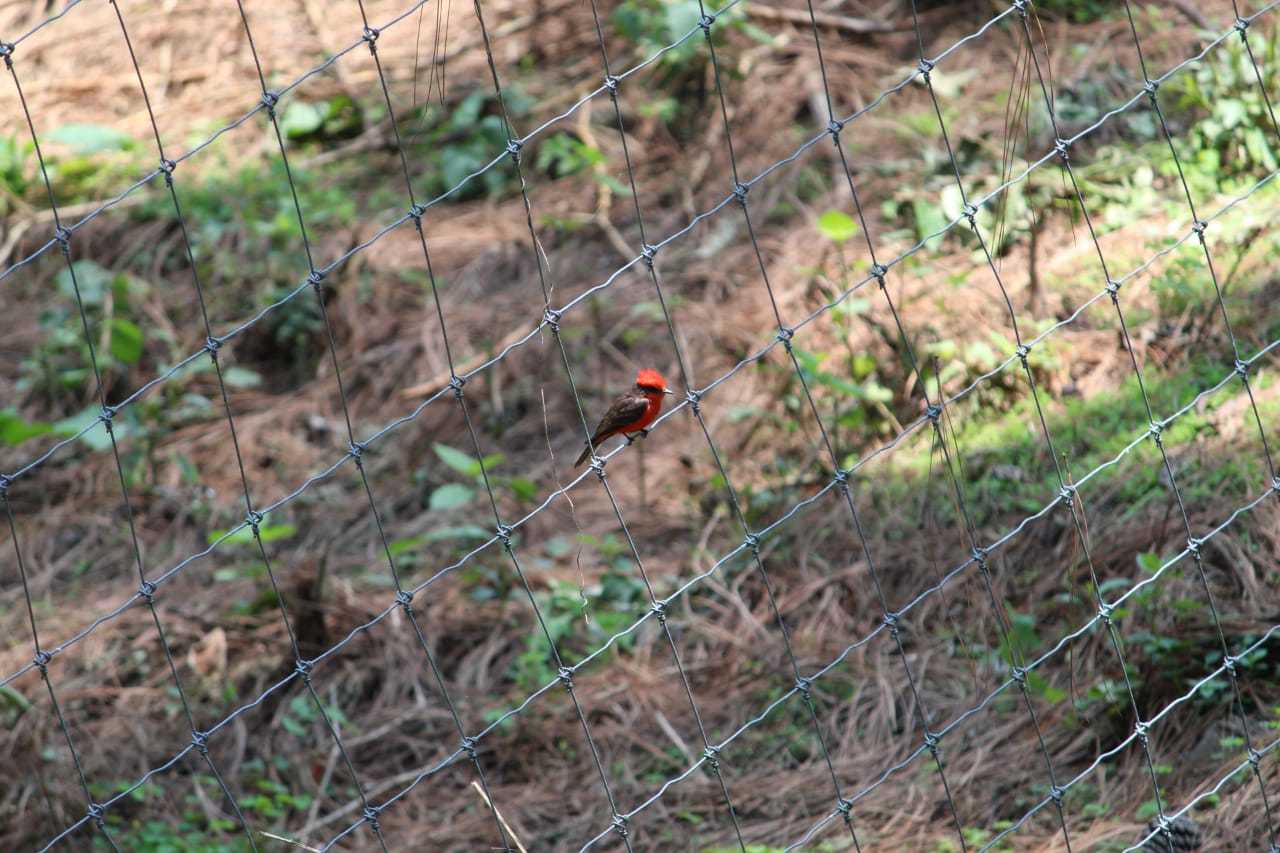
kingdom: Animalia
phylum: Chordata
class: Aves
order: Passeriformes
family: Tyrannidae
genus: Pyrocephalus
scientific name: Pyrocephalus rubinus
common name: Vermilion flycatcher
